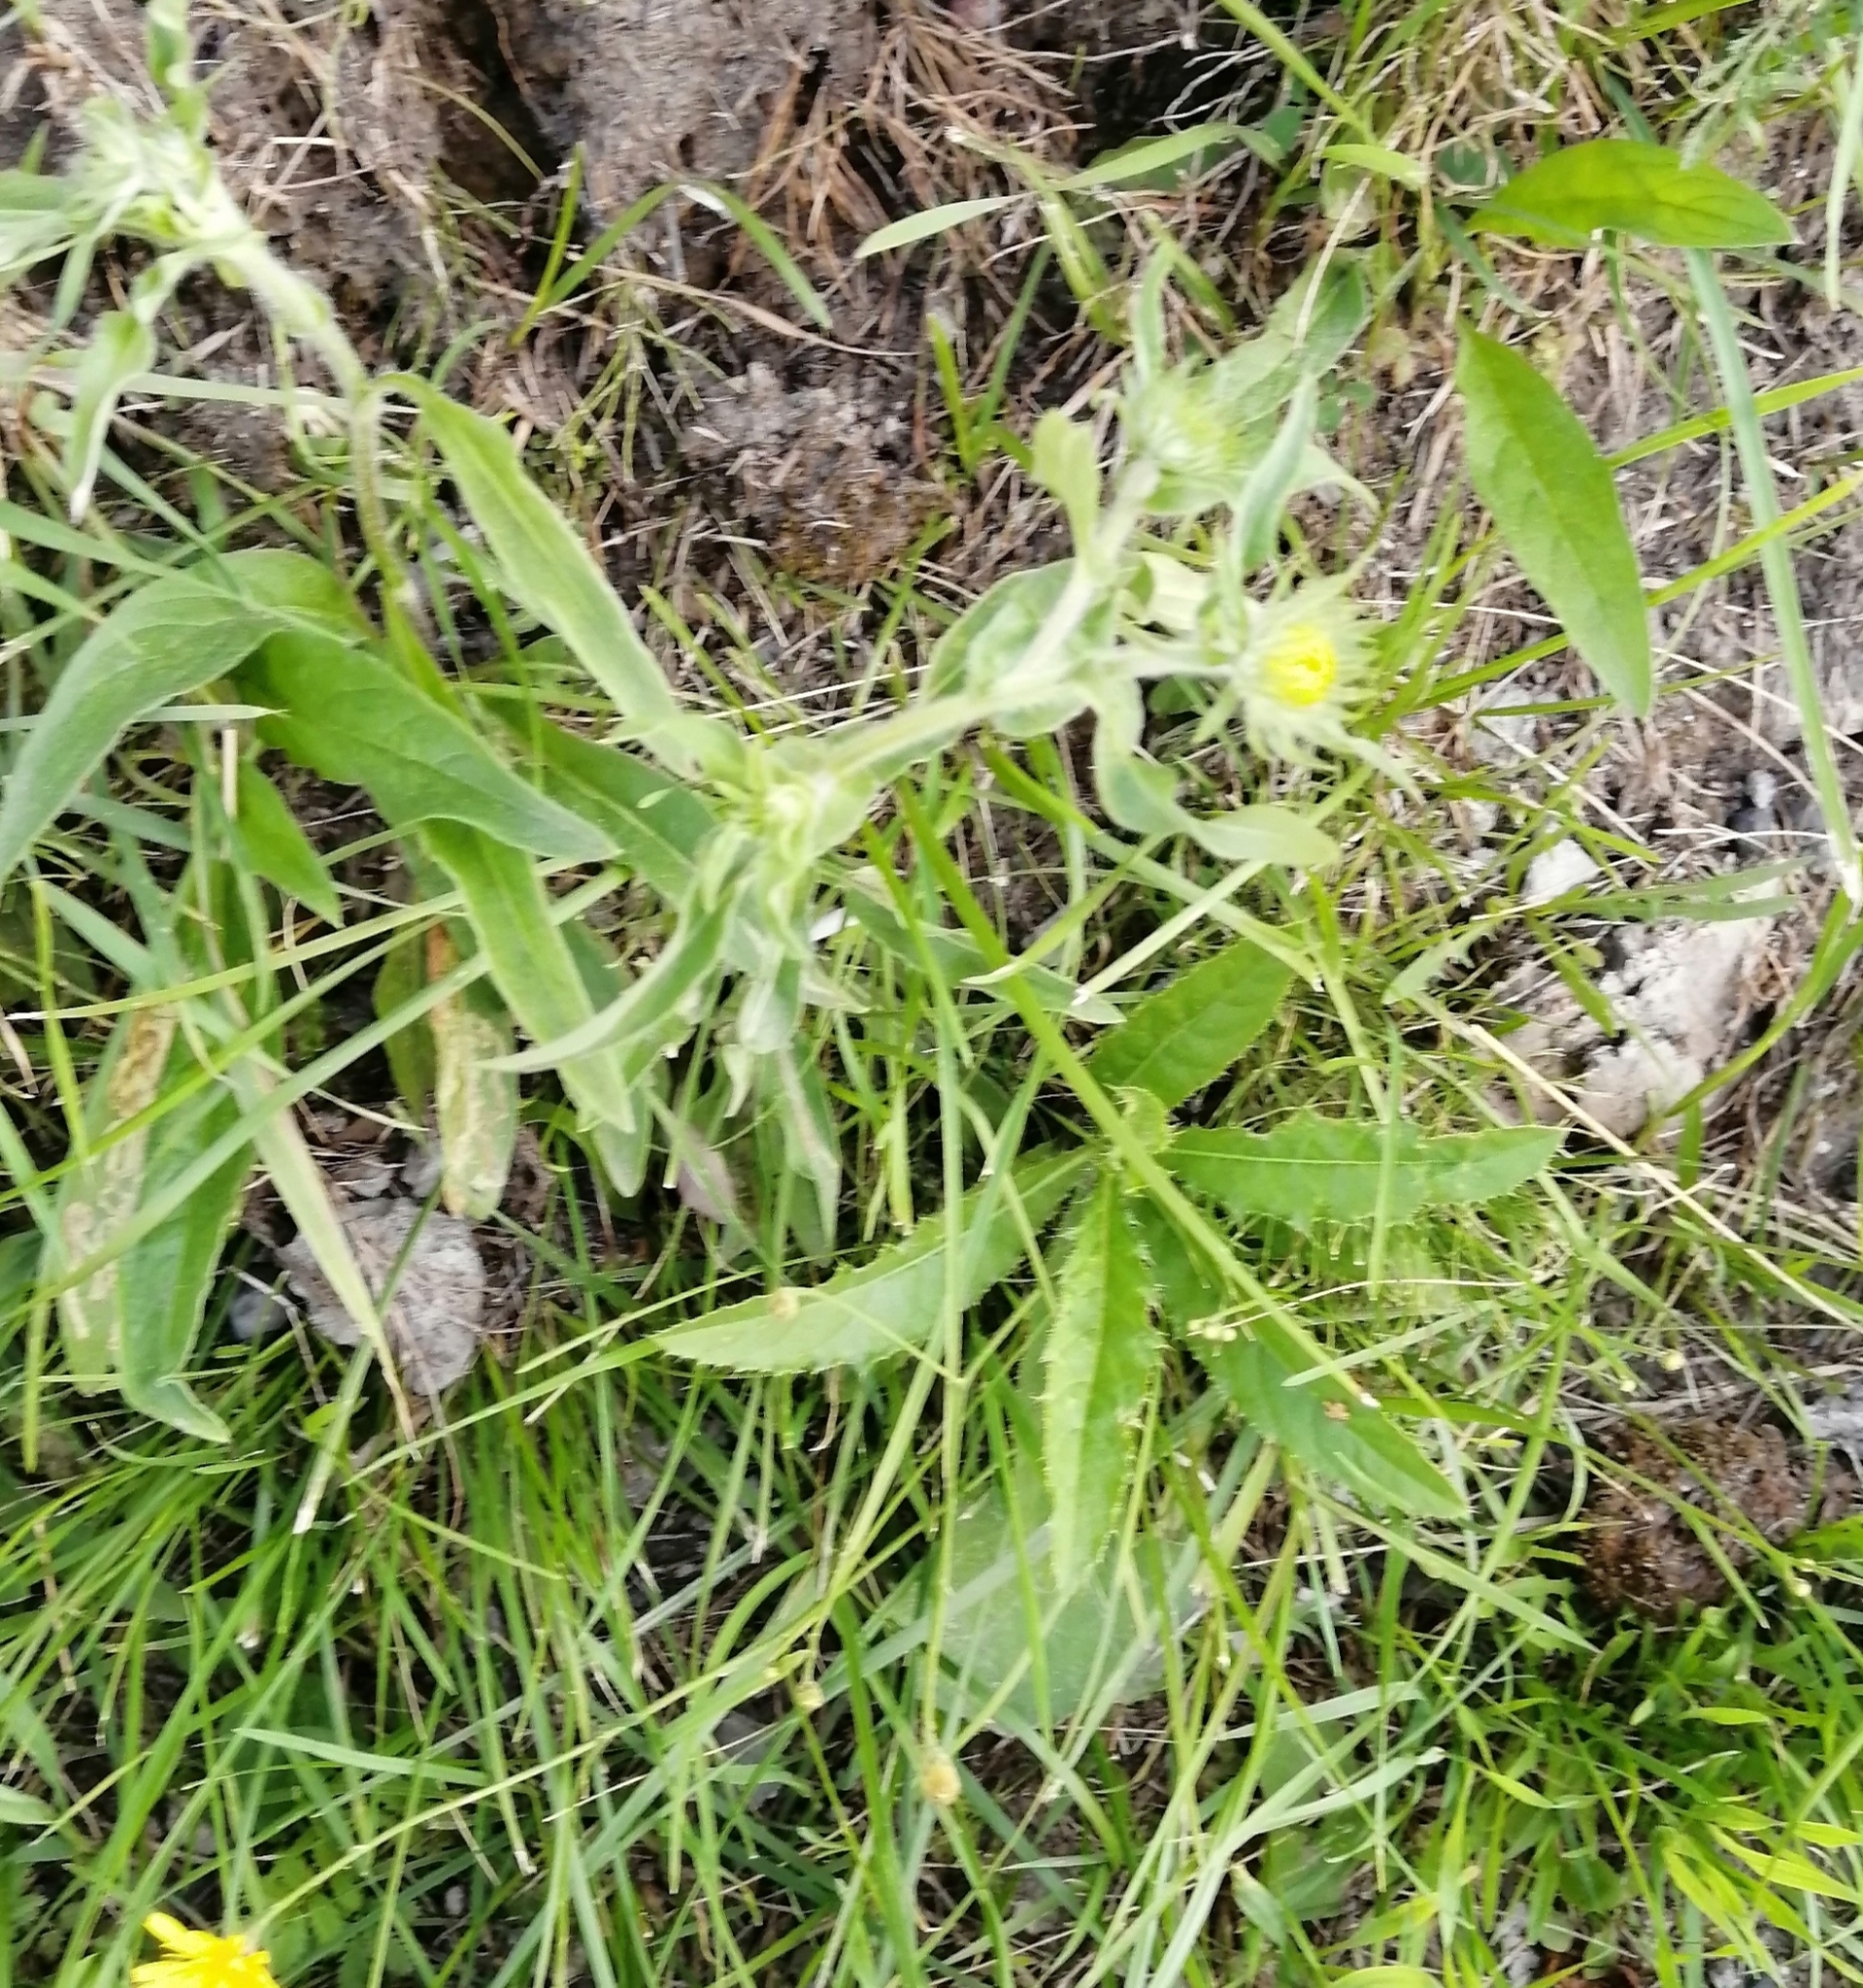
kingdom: Plantae
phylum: Tracheophyta
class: Magnoliopsida
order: Asterales
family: Asteraceae
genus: Pentanema
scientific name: Pentanema britannicum
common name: British elecampane
